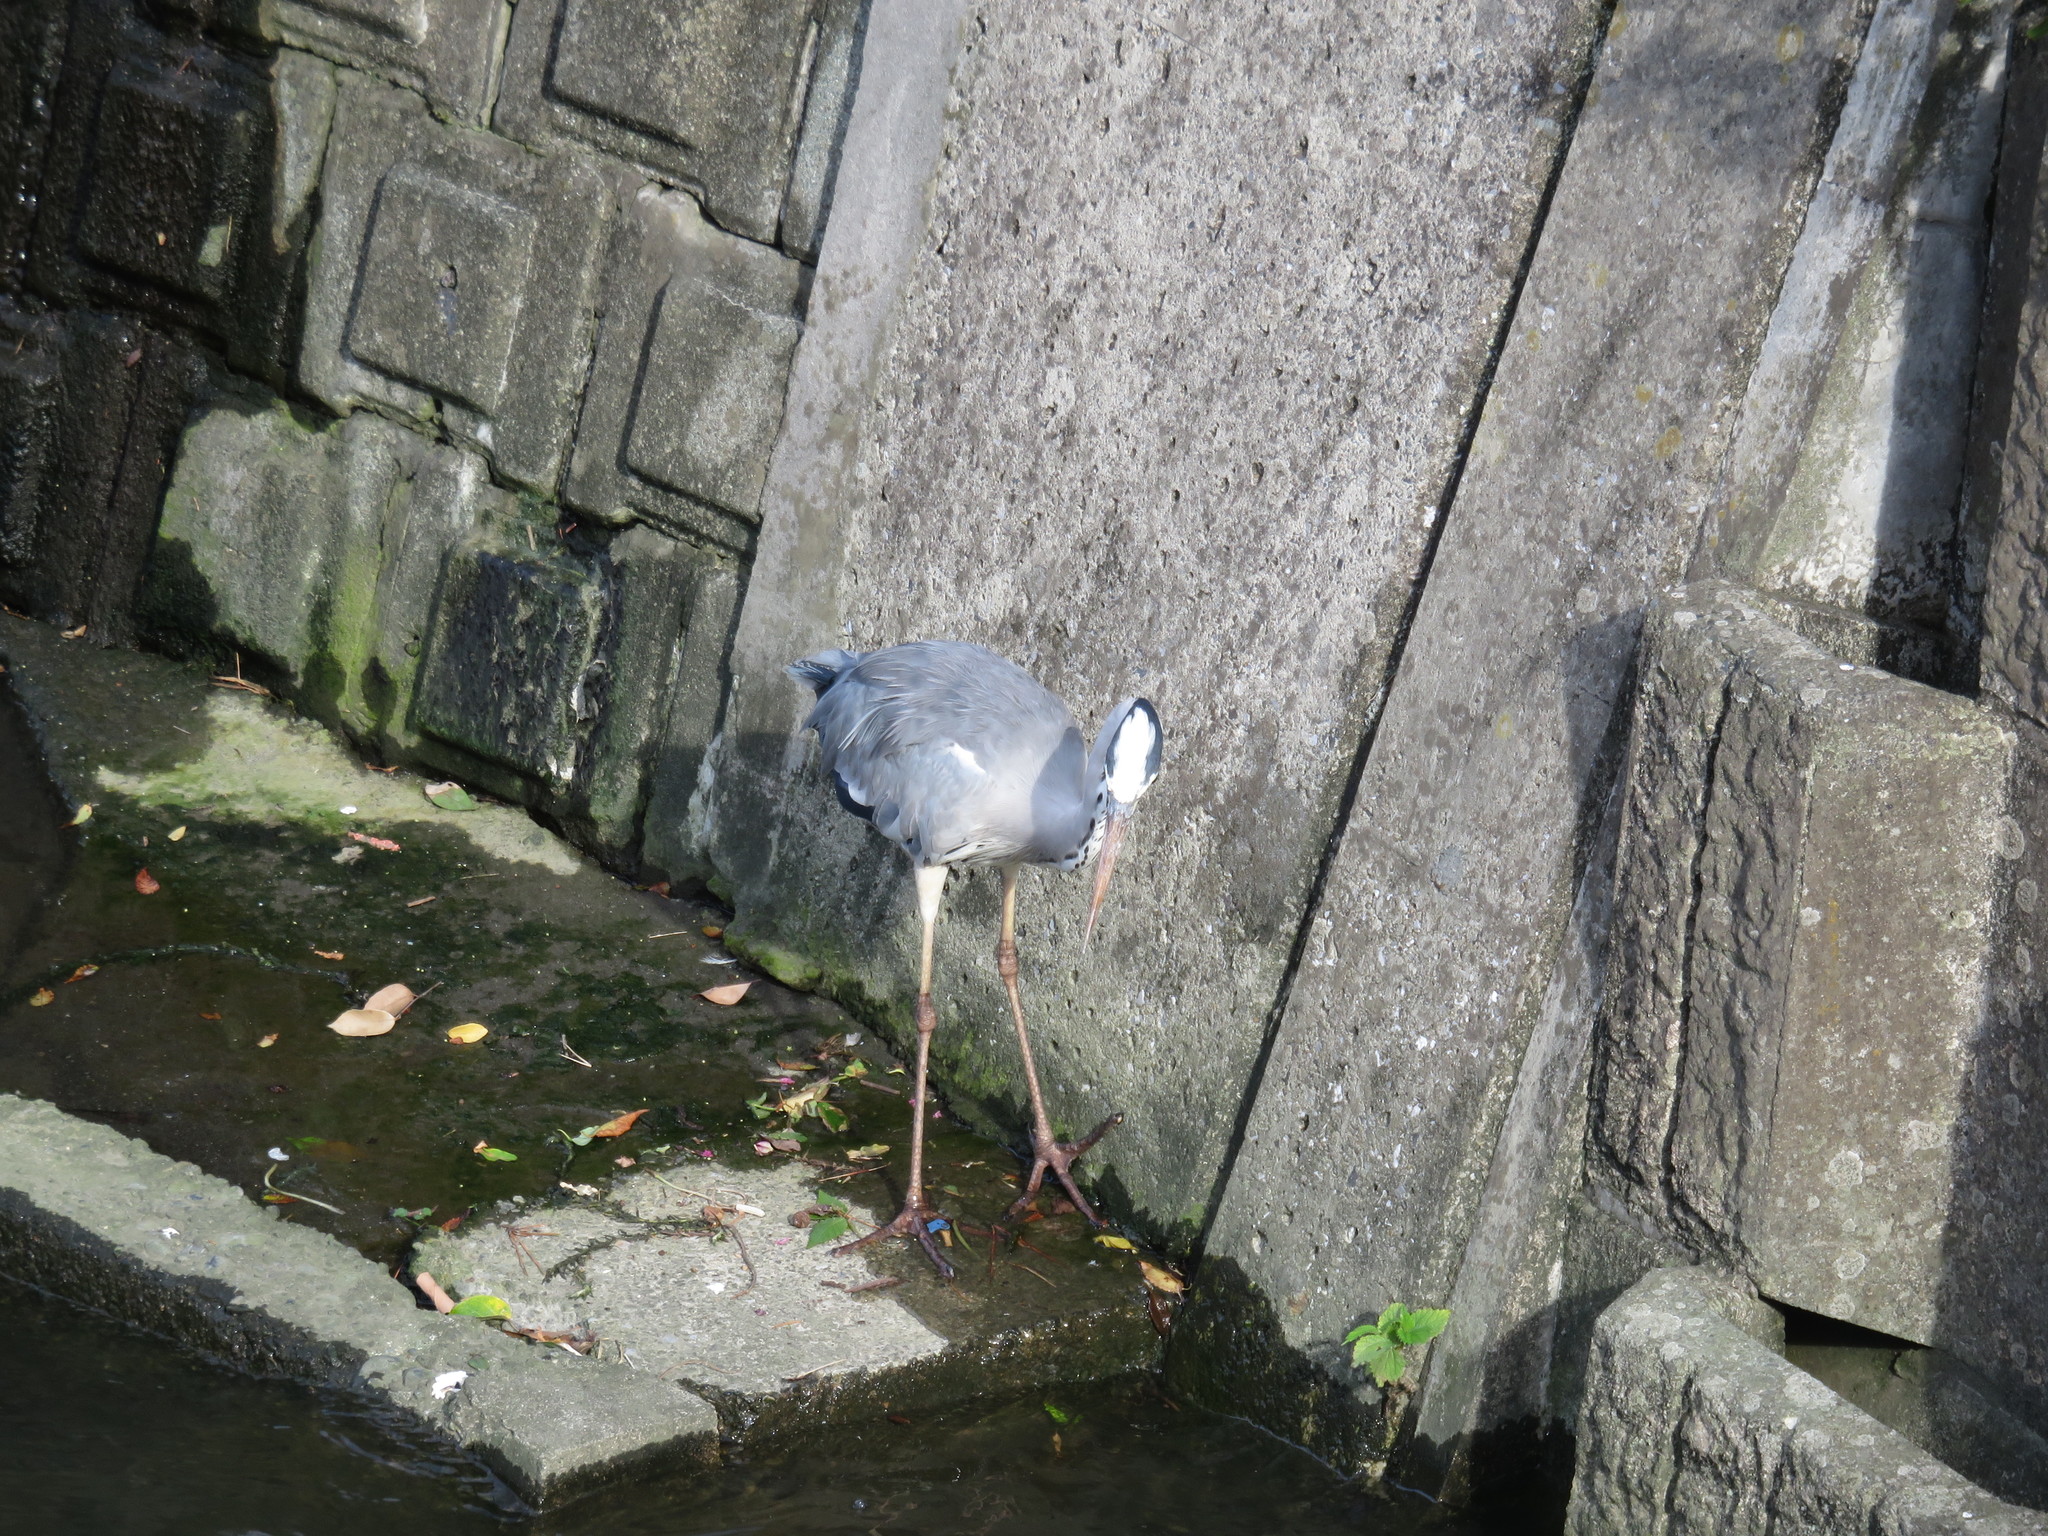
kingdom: Animalia
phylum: Chordata
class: Aves
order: Pelecaniformes
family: Ardeidae
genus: Ardea
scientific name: Ardea cinerea
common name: Grey heron
